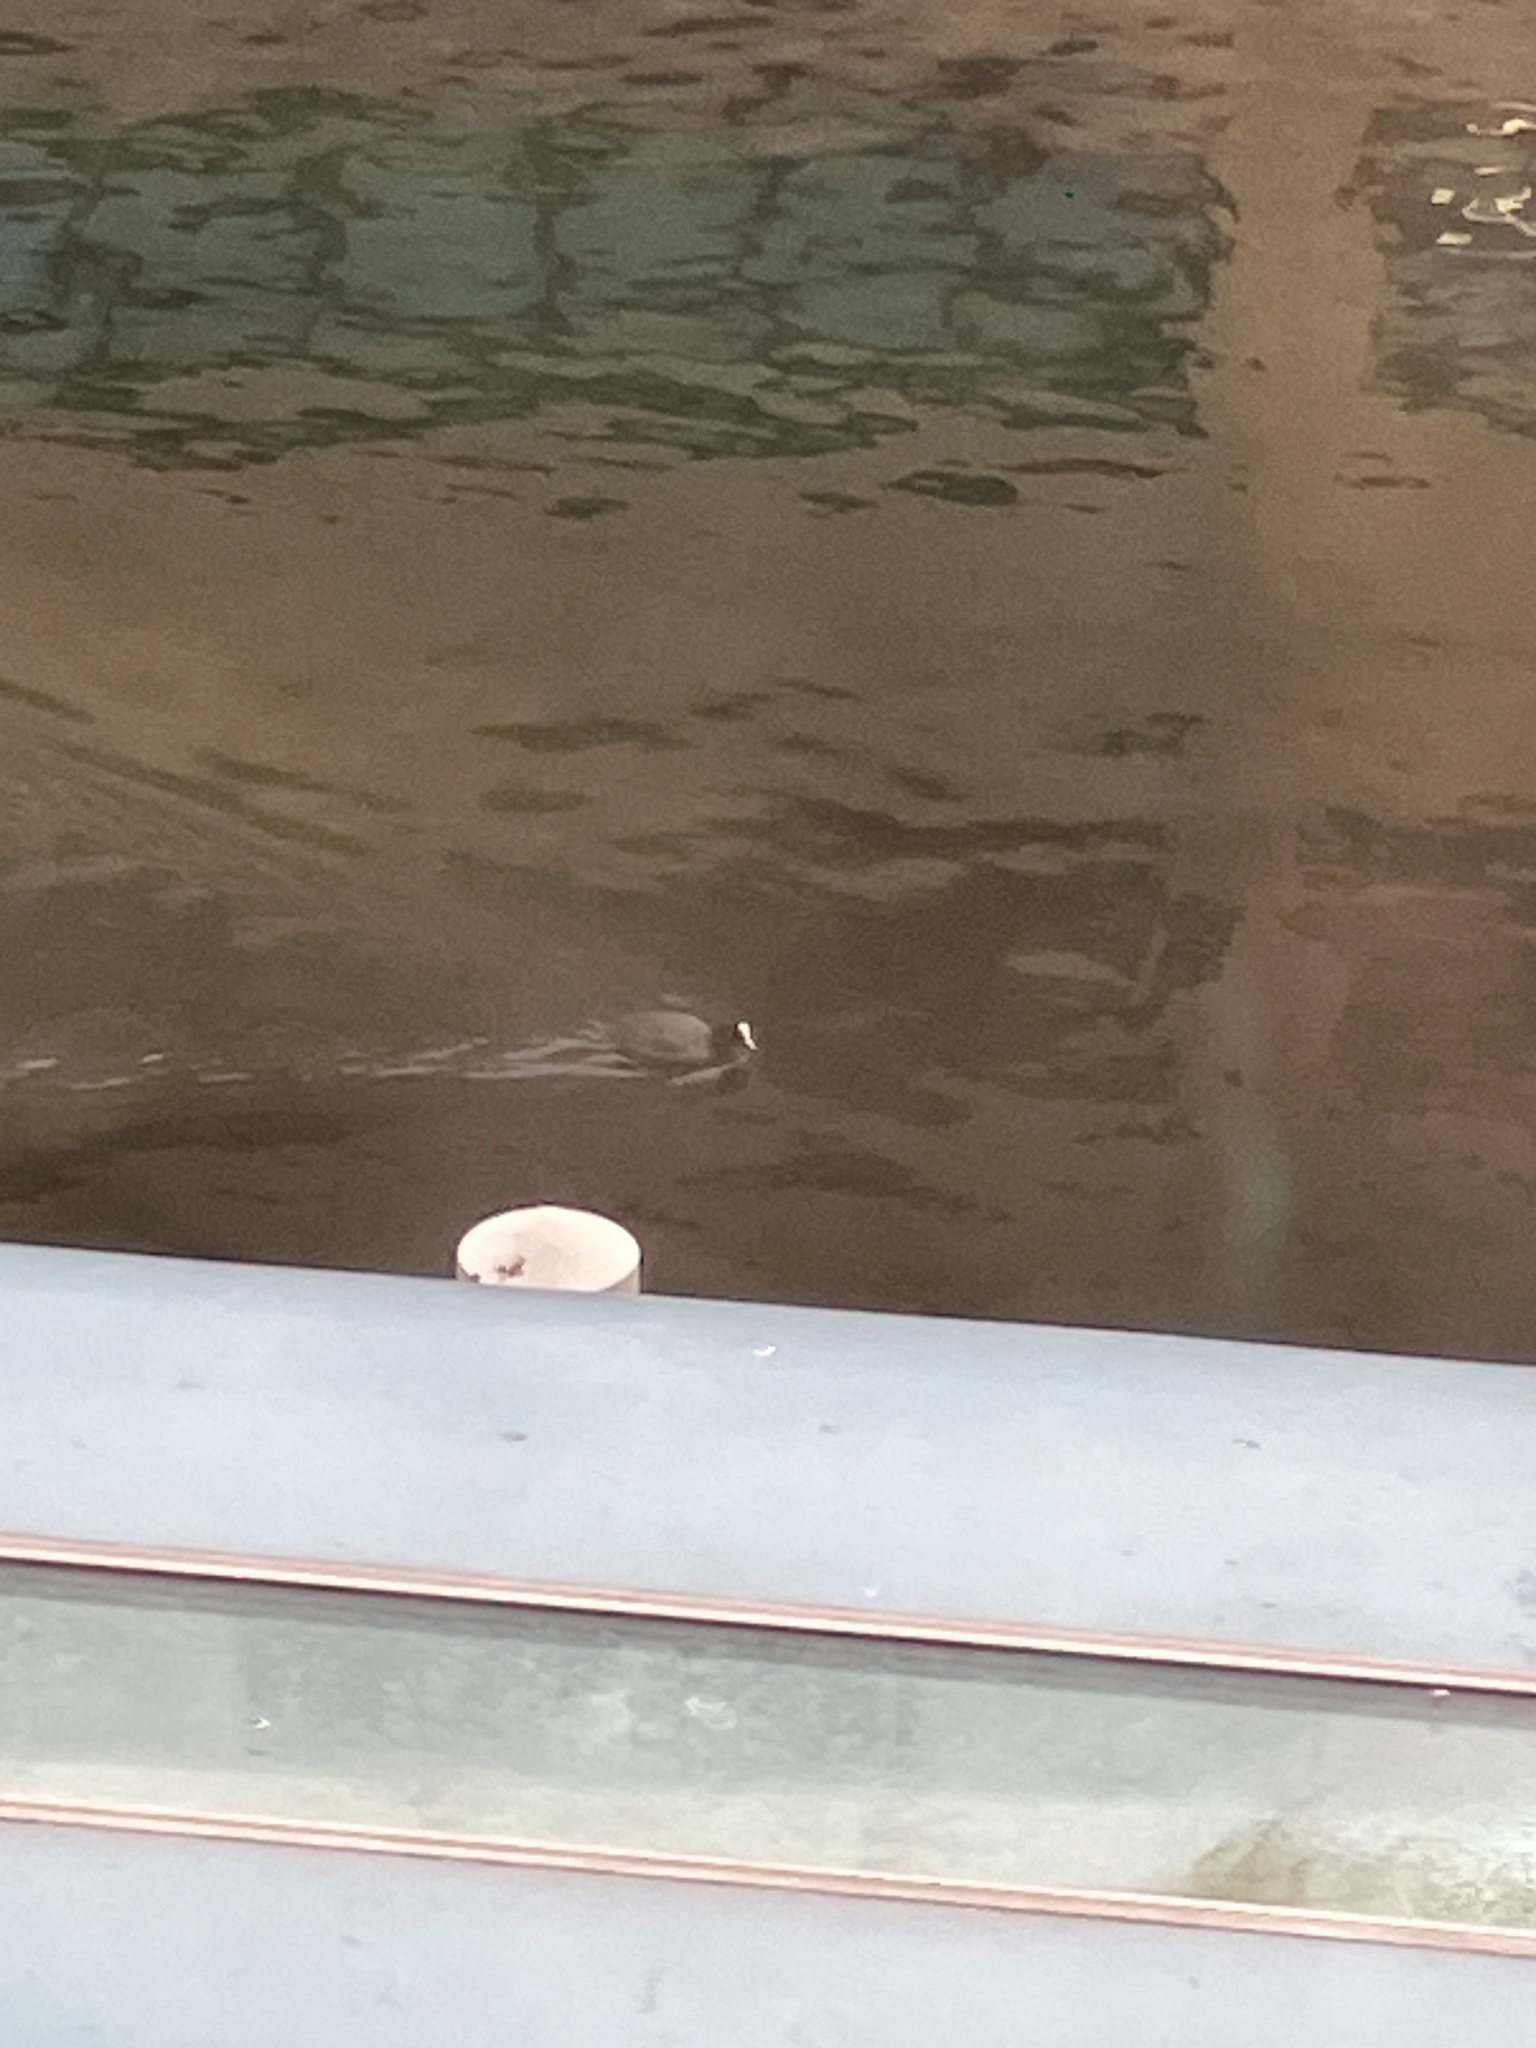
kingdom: Animalia
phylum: Chordata
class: Aves
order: Gruiformes
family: Rallidae
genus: Fulica
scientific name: Fulica atra
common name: Eurasian coot
